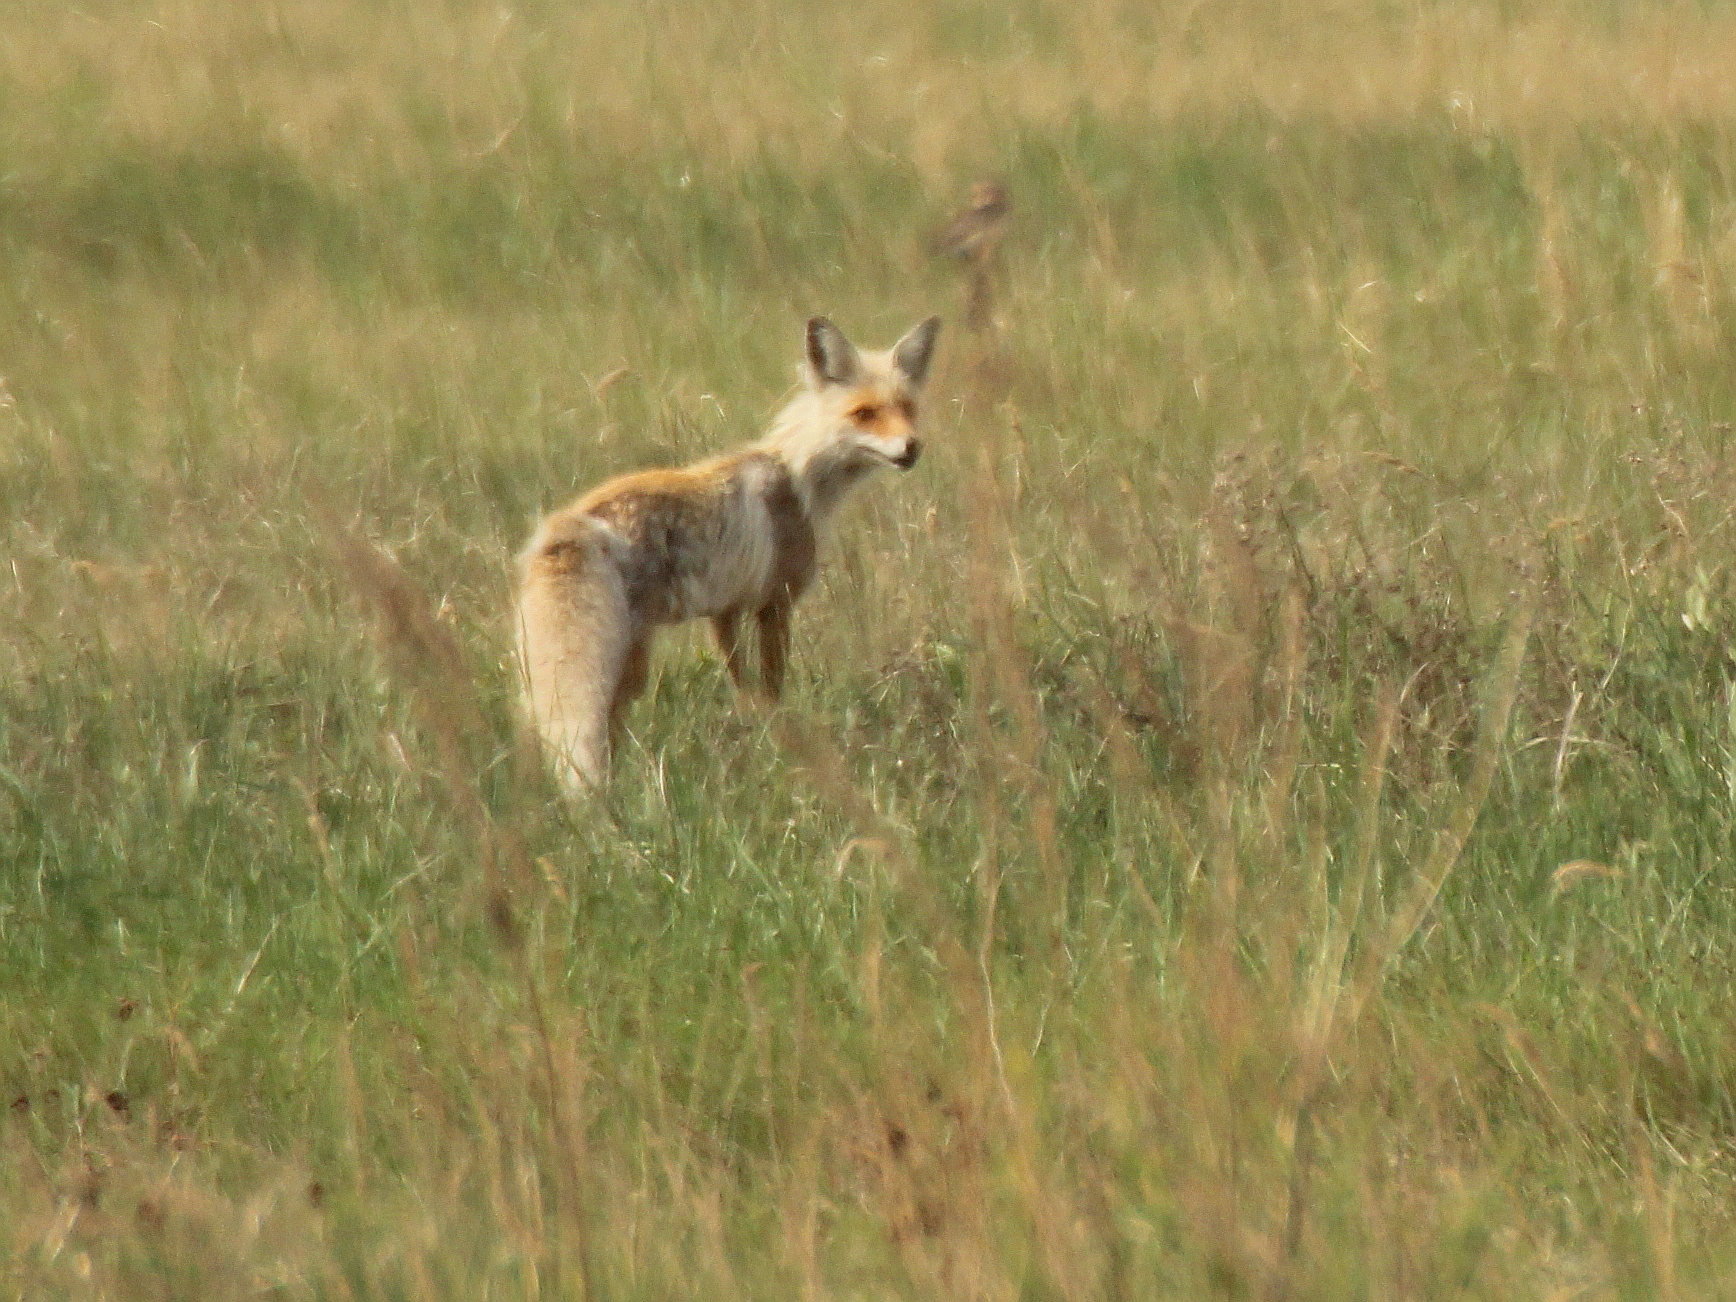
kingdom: Animalia
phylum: Chordata
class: Mammalia
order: Carnivora
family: Canidae
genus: Vulpes
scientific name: Vulpes vulpes
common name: Red fox
